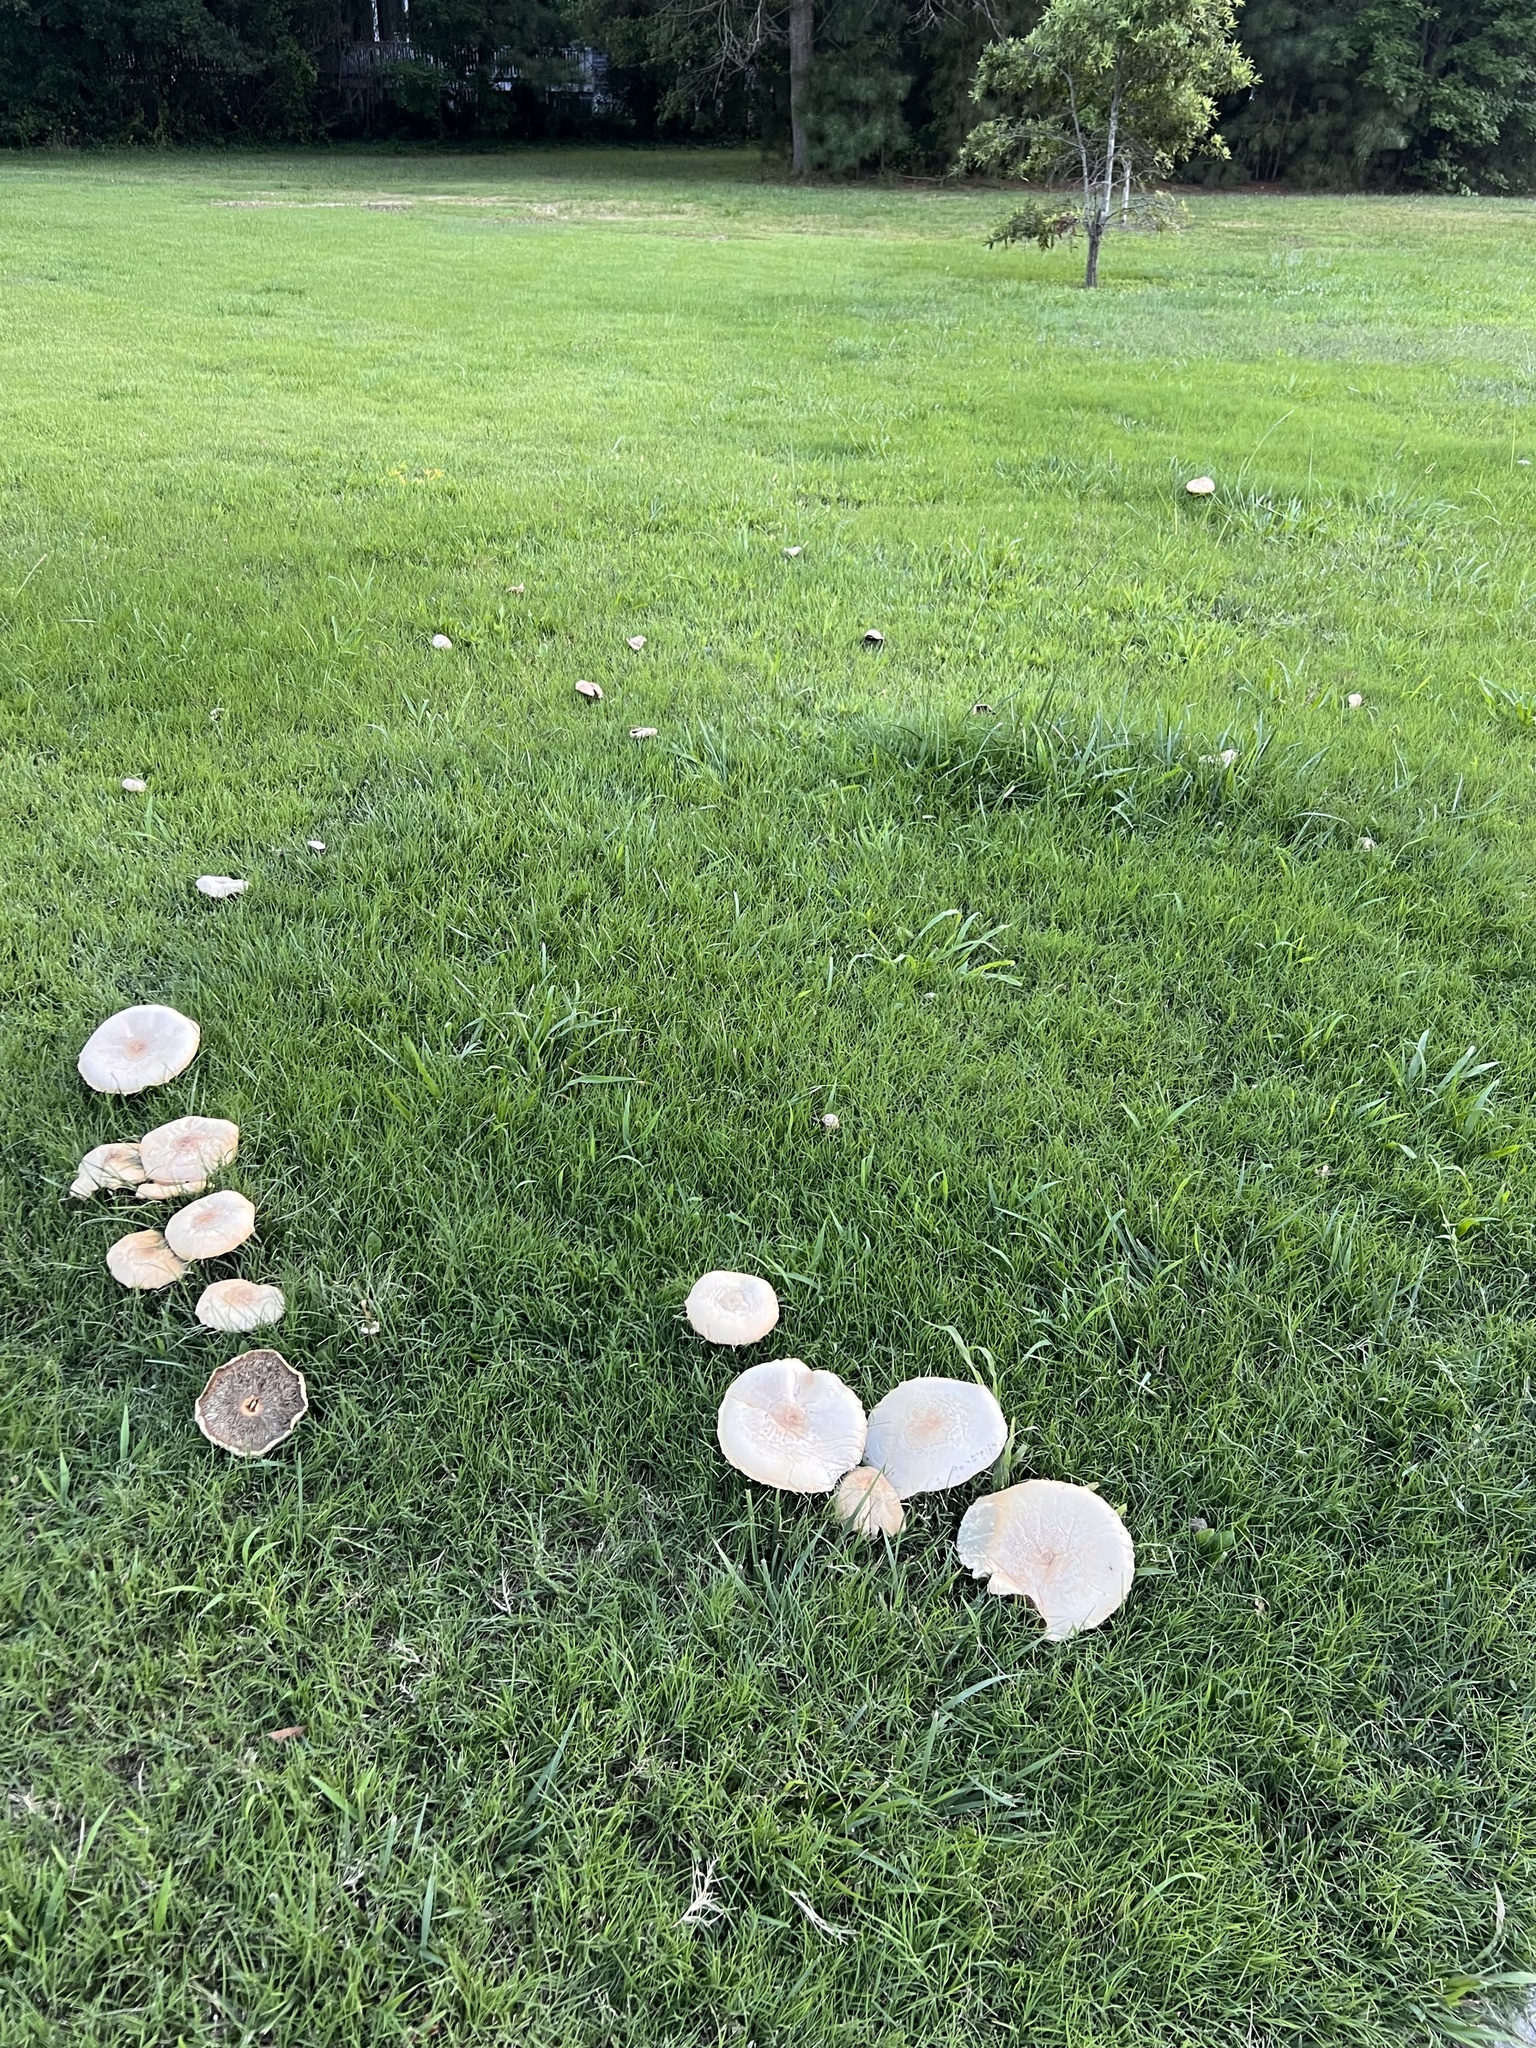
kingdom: Fungi
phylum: Basidiomycota
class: Agaricomycetes
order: Agaricales
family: Agaricaceae
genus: Chlorophyllum
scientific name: Chlorophyllum molybdites
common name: False parasol
